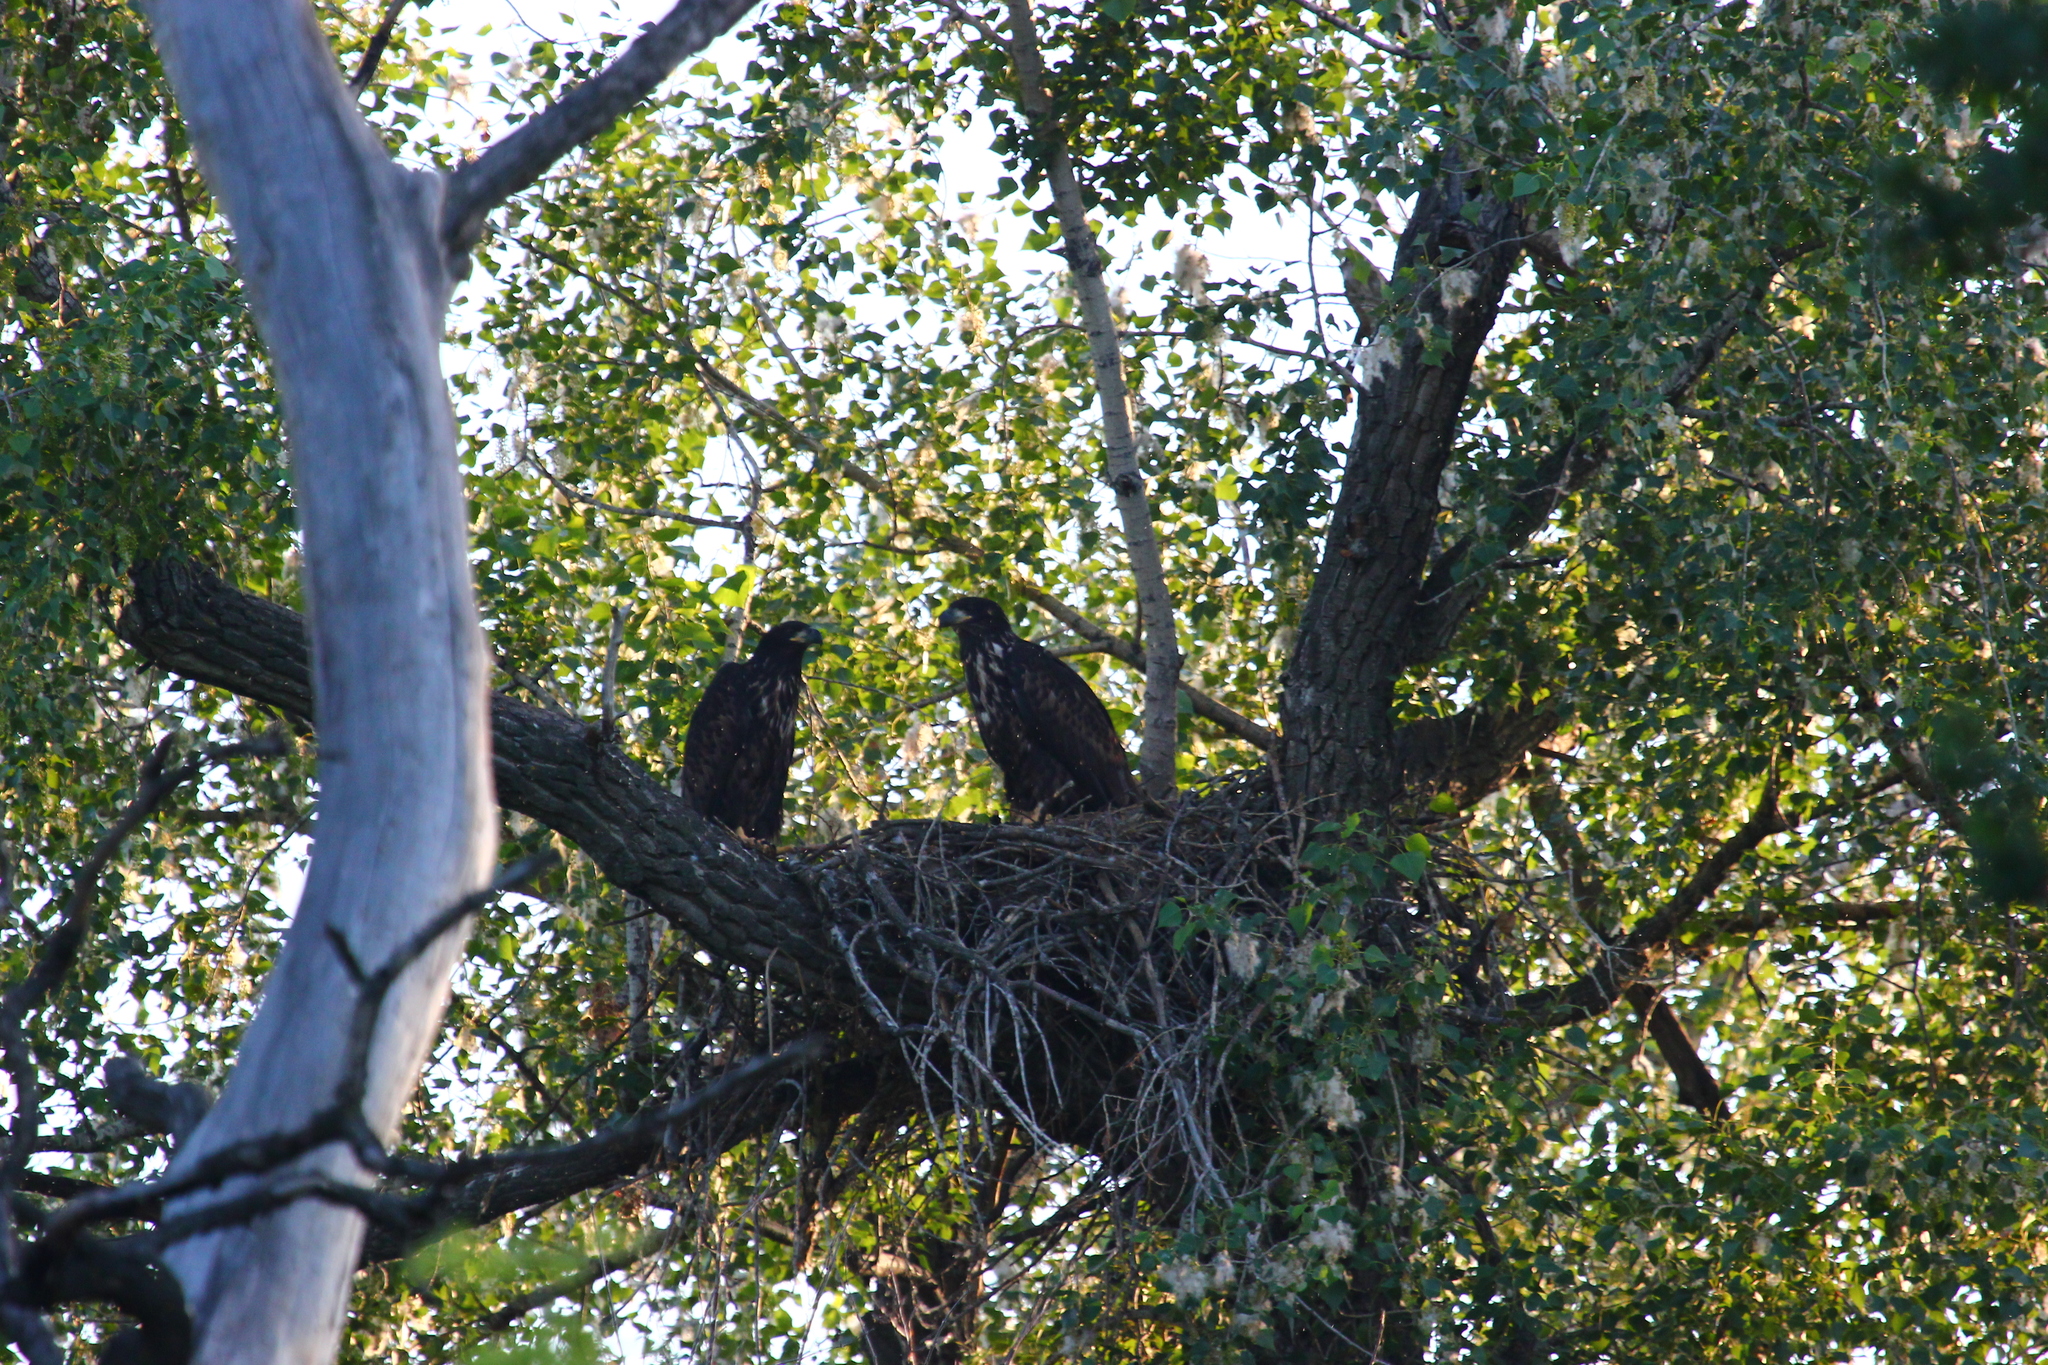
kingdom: Animalia
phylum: Chordata
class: Aves
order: Accipitriformes
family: Accipitridae
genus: Haliaeetus
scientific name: Haliaeetus albicilla
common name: White-tailed eagle
